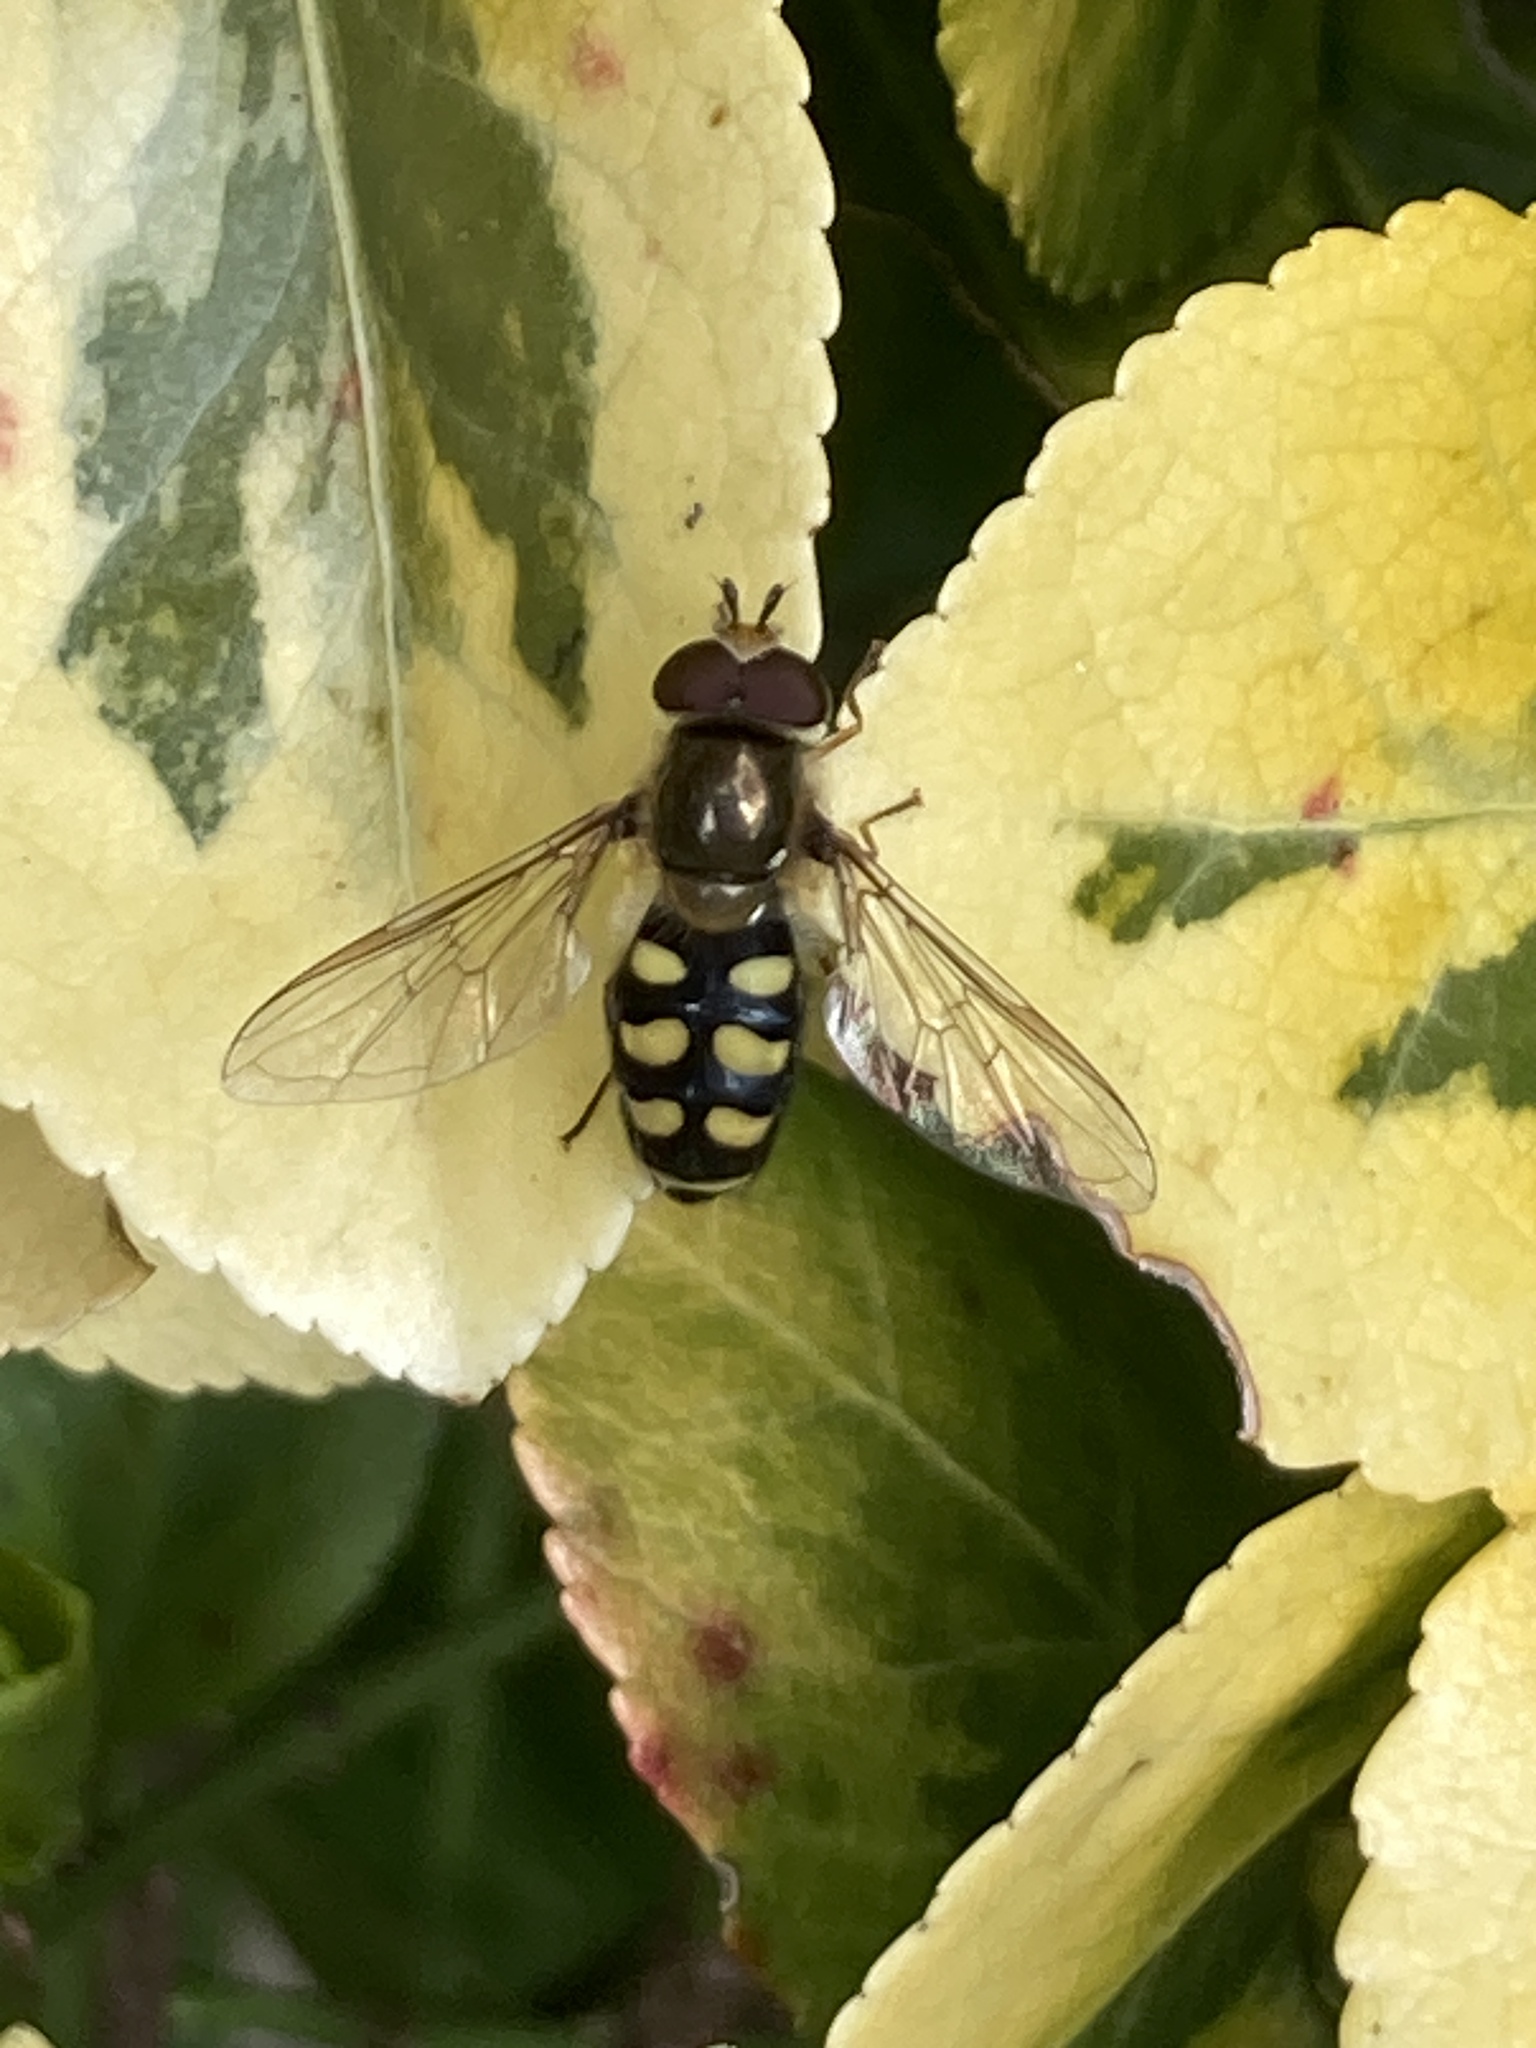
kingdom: Animalia
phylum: Arthropoda
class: Insecta
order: Diptera
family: Syrphidae
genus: Eupeodes
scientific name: Eupeodes
